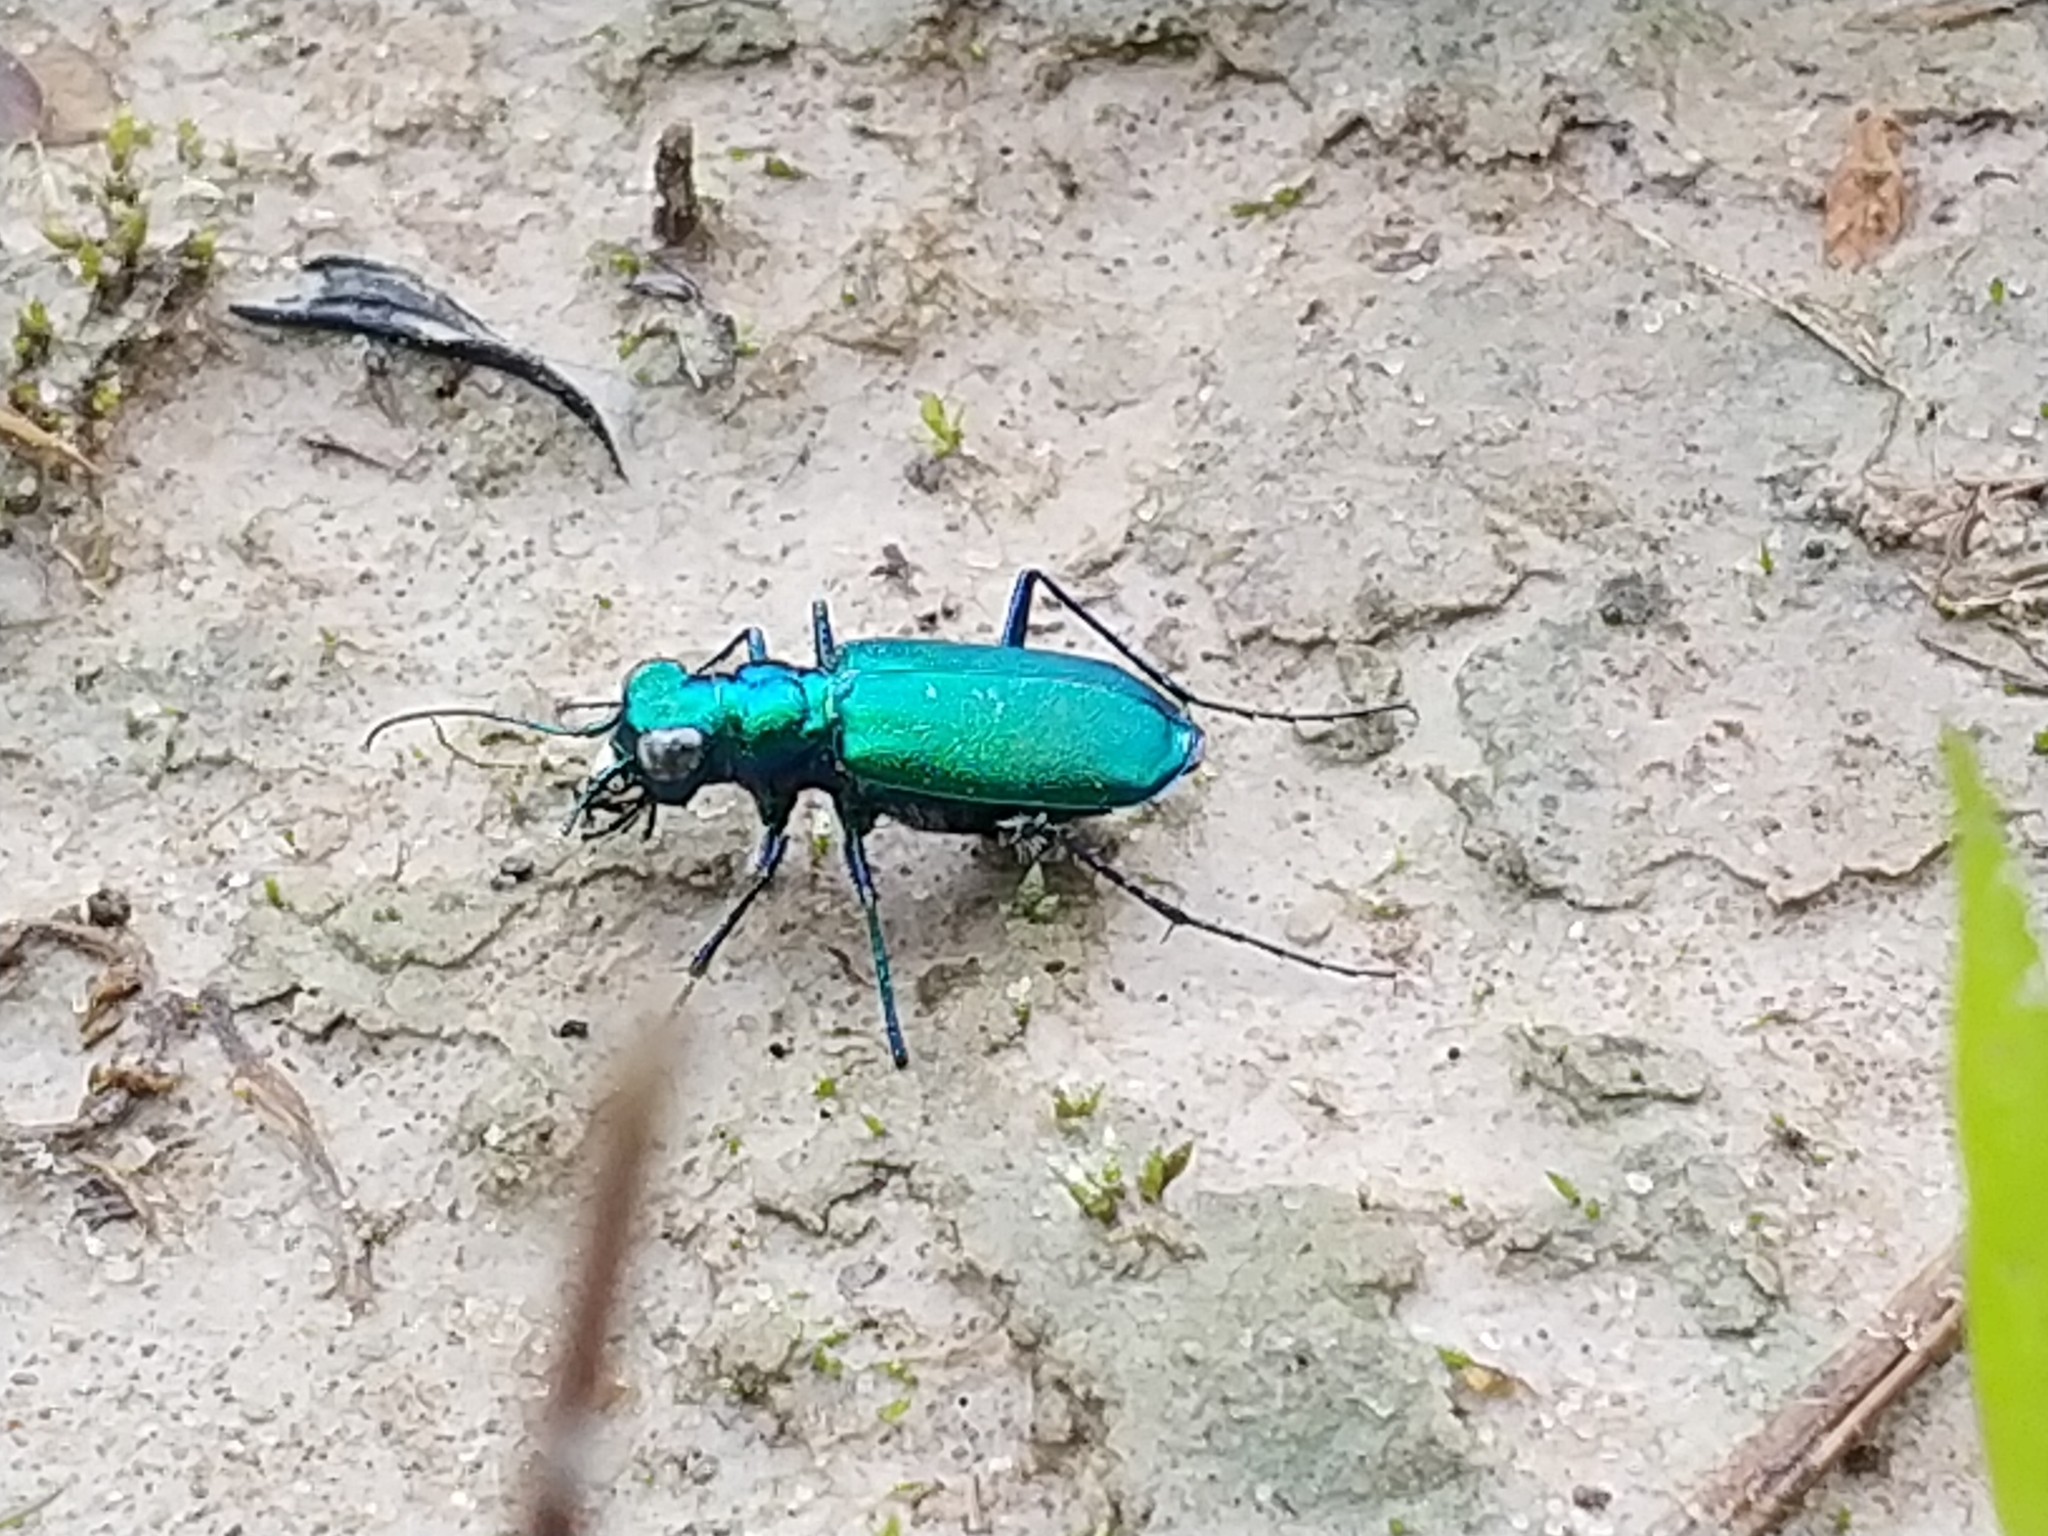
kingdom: Animalia
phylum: Arthropoda
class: Insecta
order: Coleoptera
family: Carabidae
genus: Cicindela
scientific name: Cicindela sexguttata
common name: Six-spotted tiger beetle
